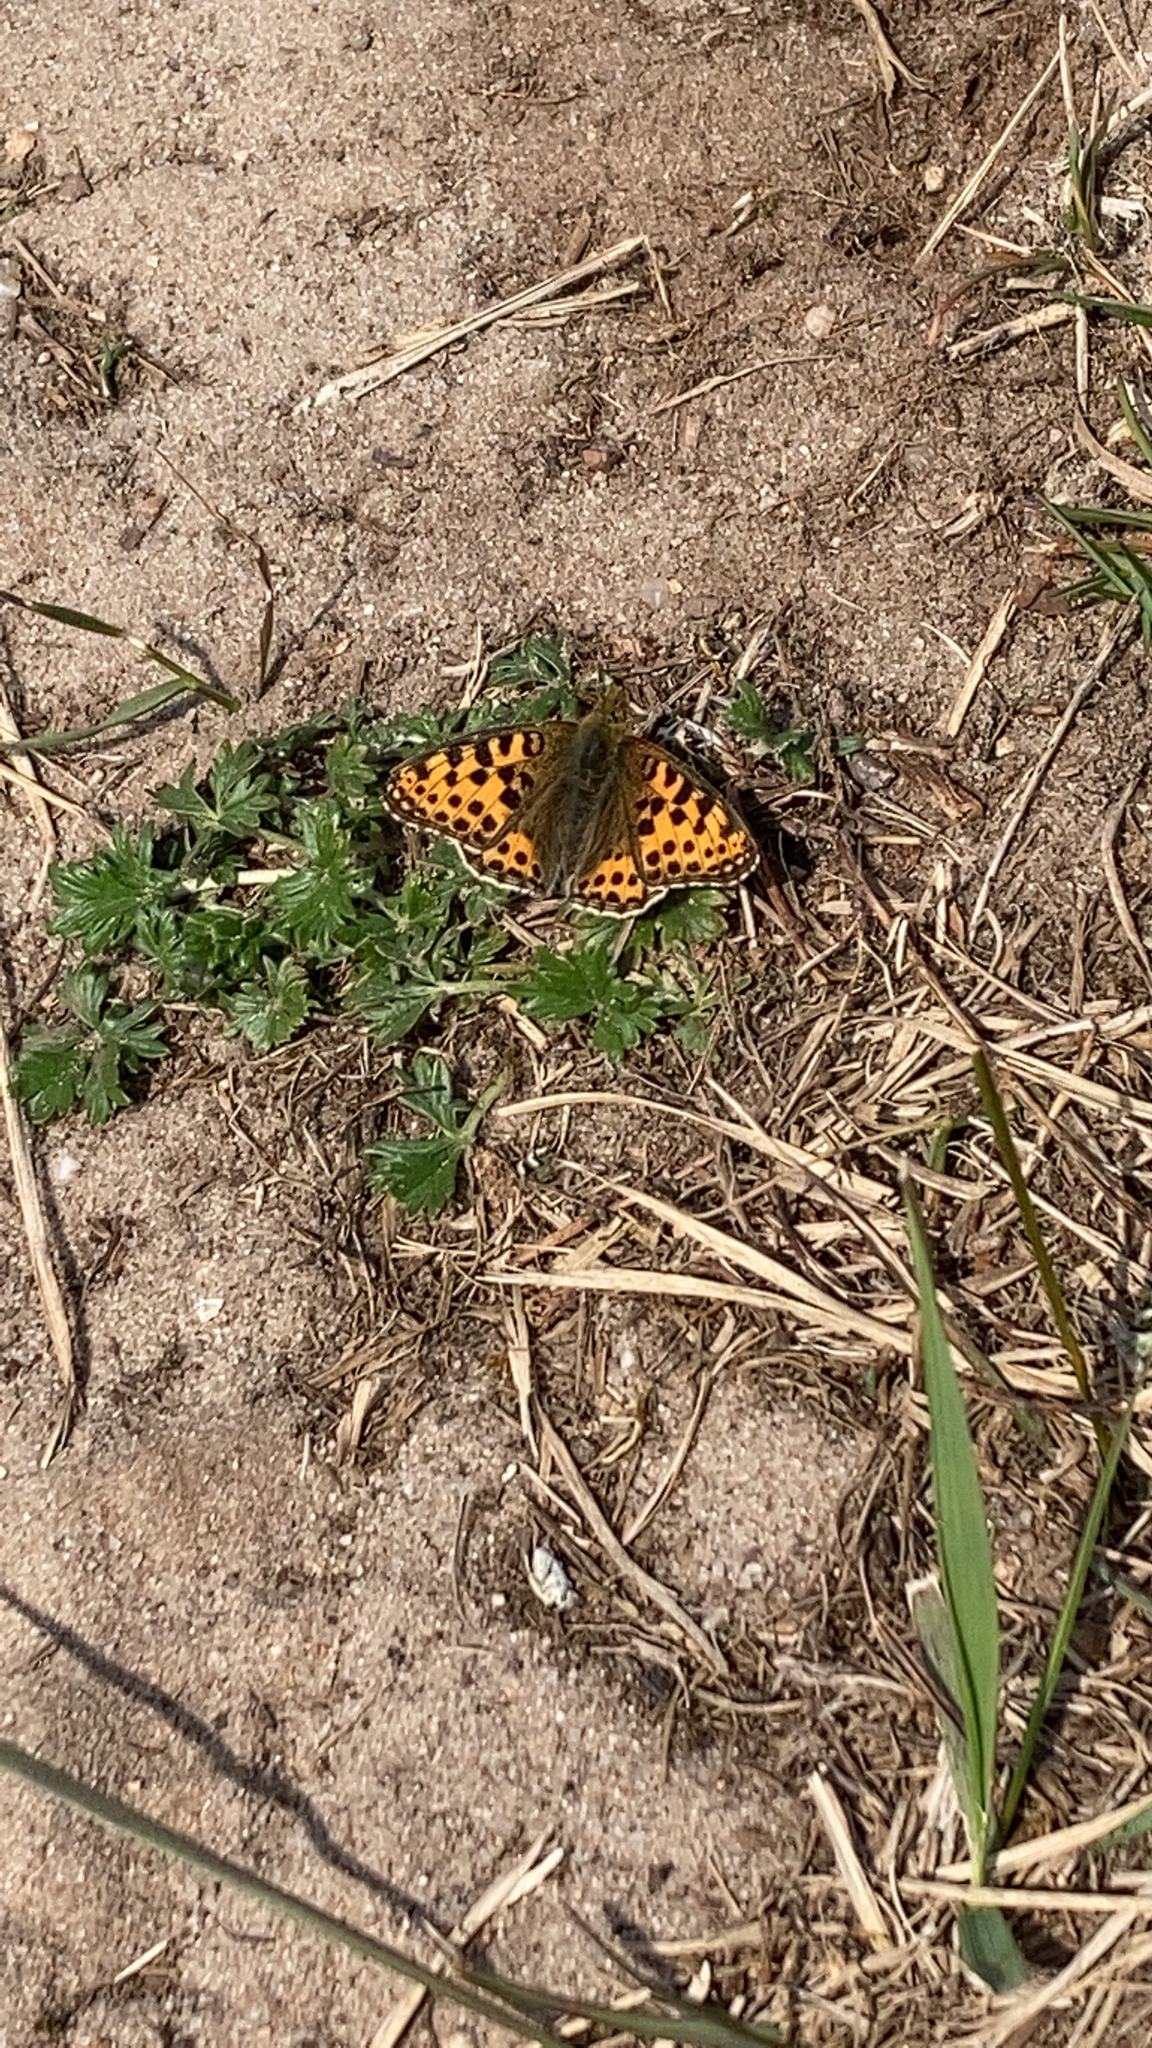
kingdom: Animalia
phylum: Arthropoda
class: Insecta
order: Lepidoptera
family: Nymphalidae
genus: Issoria
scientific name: Issoria lathonia
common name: Queen of spain fritillary
